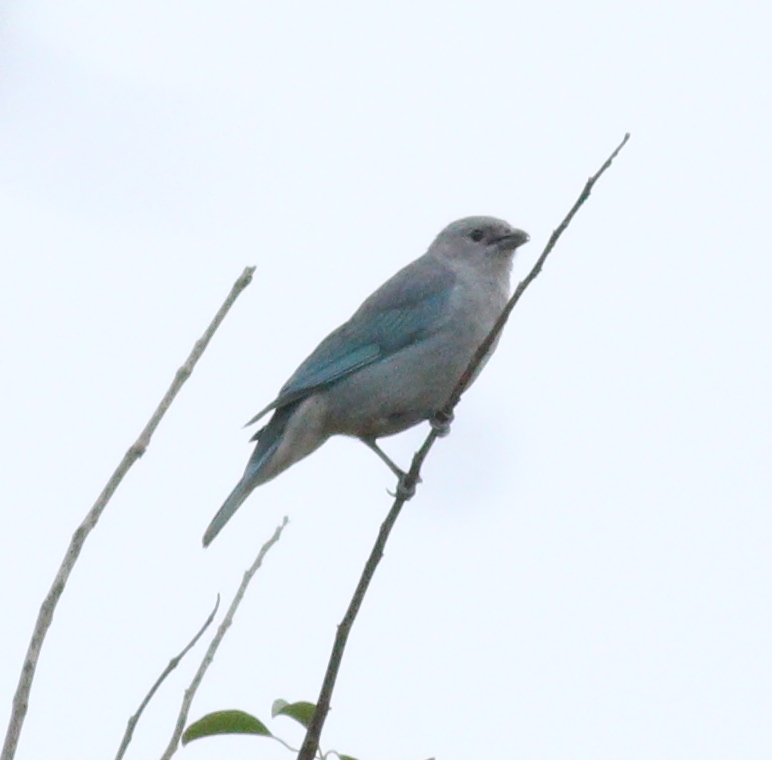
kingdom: Animalia
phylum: Chordata
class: Aves
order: Passeriformes
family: Thraupidae
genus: Thraupis
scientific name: Thraupis sayaca
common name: Sayaca tanager
